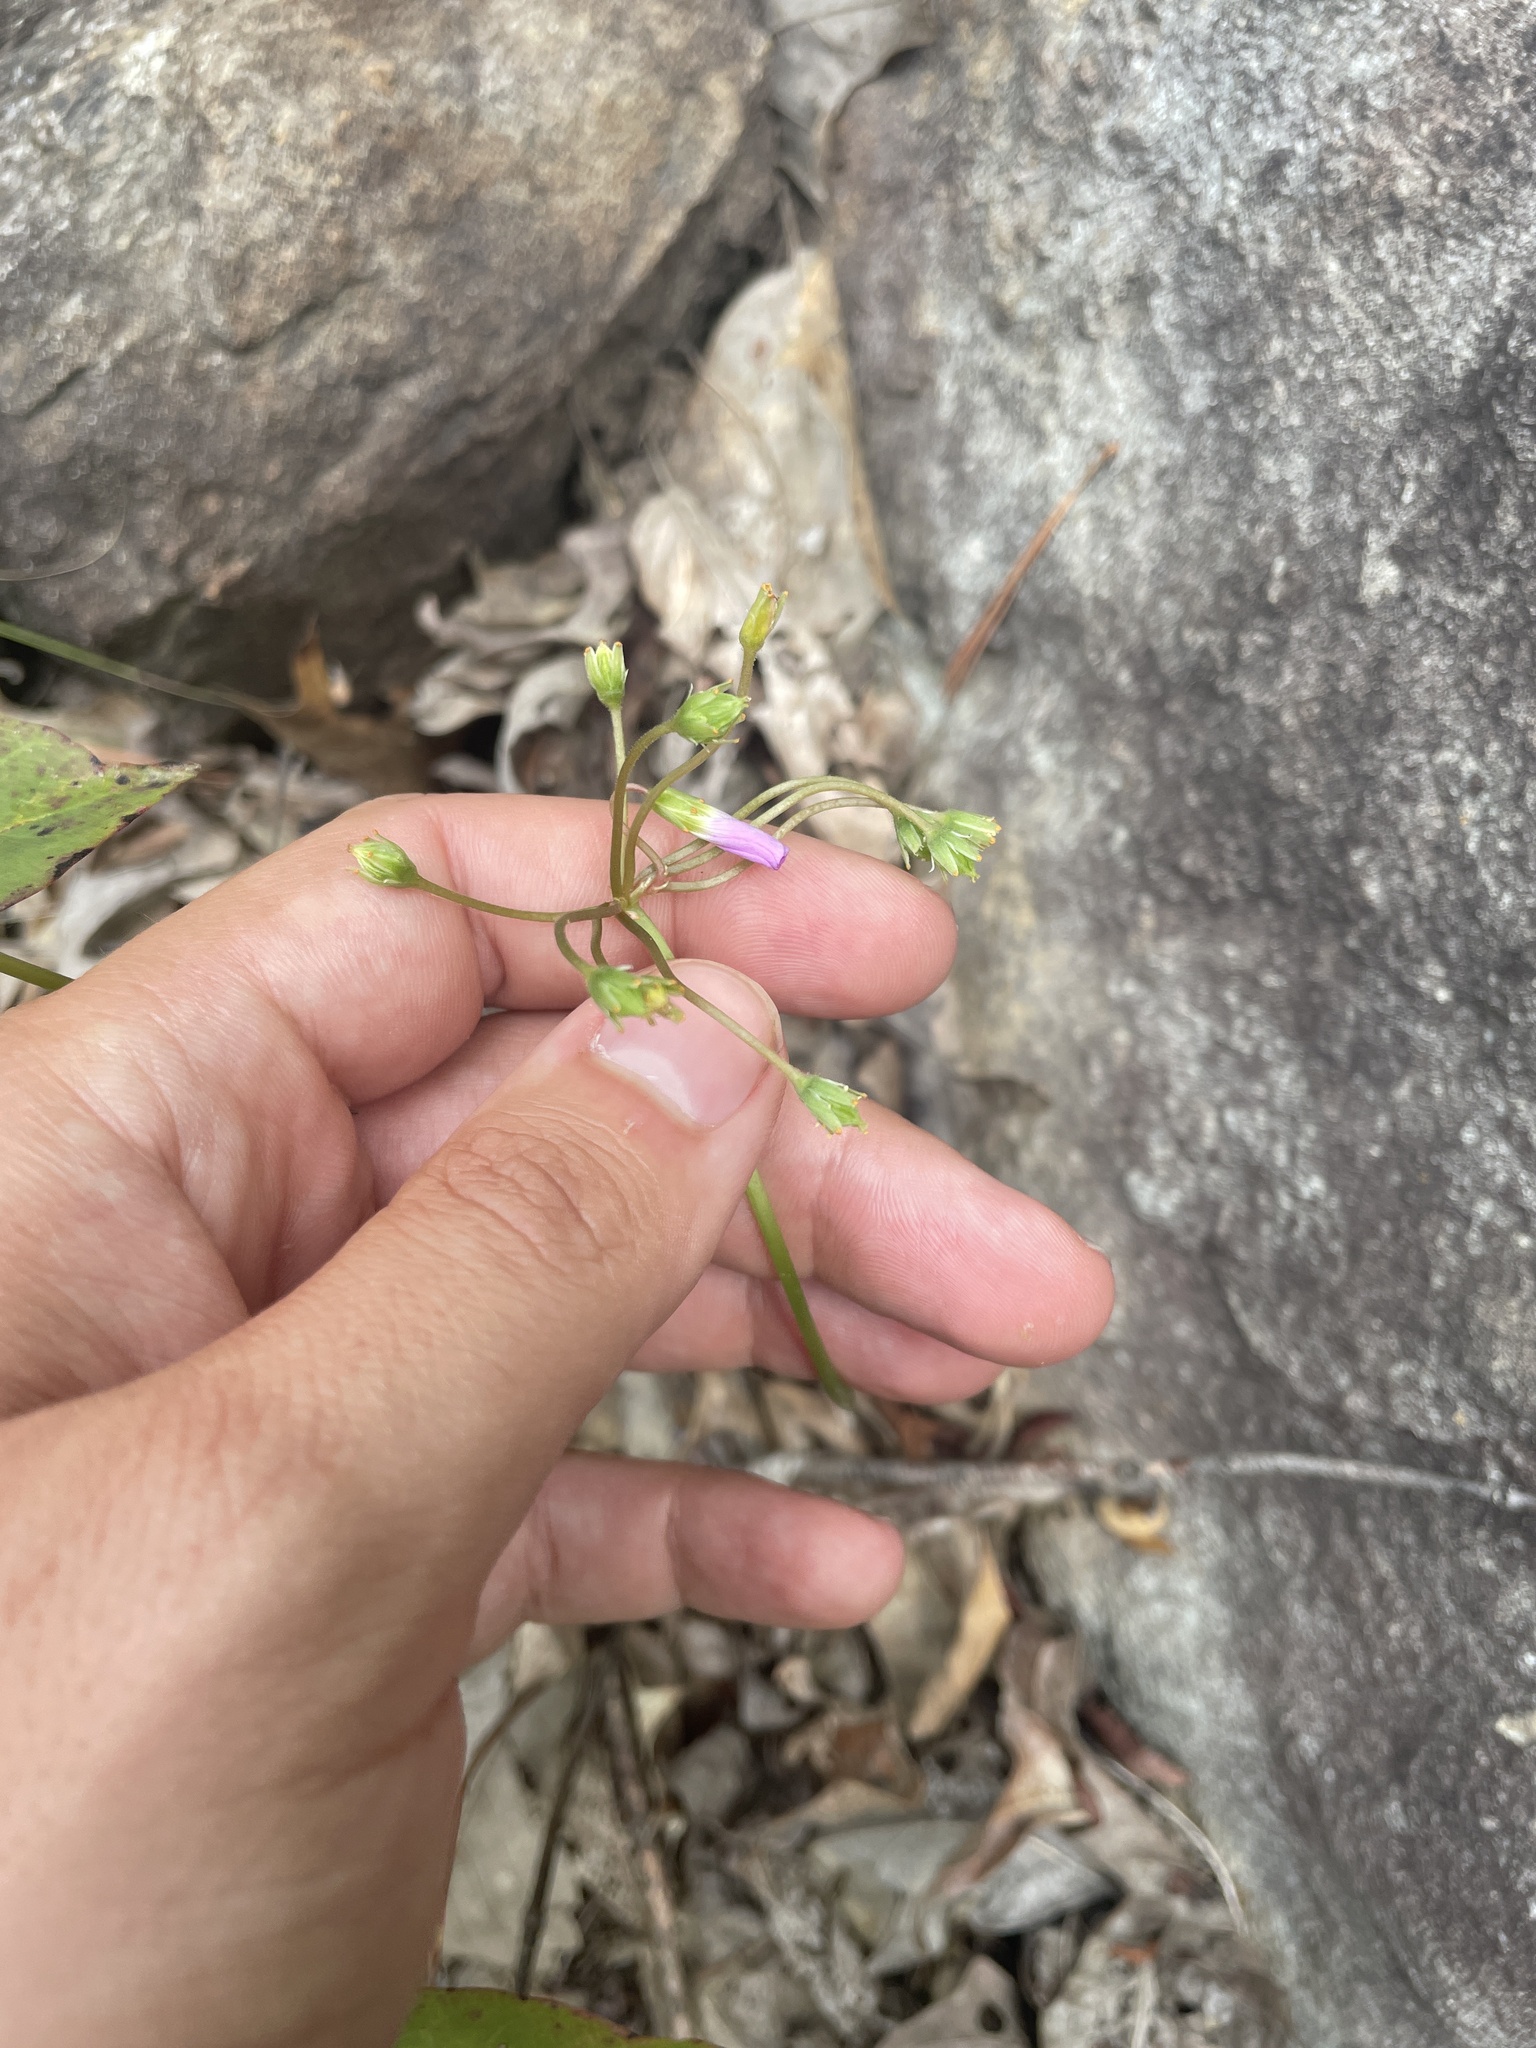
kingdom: Plantae
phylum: Tracheophyta
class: Magnoliopsida
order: Oxalidales
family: Oxalidaceae
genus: Oxalis
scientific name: Oxalis violacea
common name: Violet wood-sorrel
